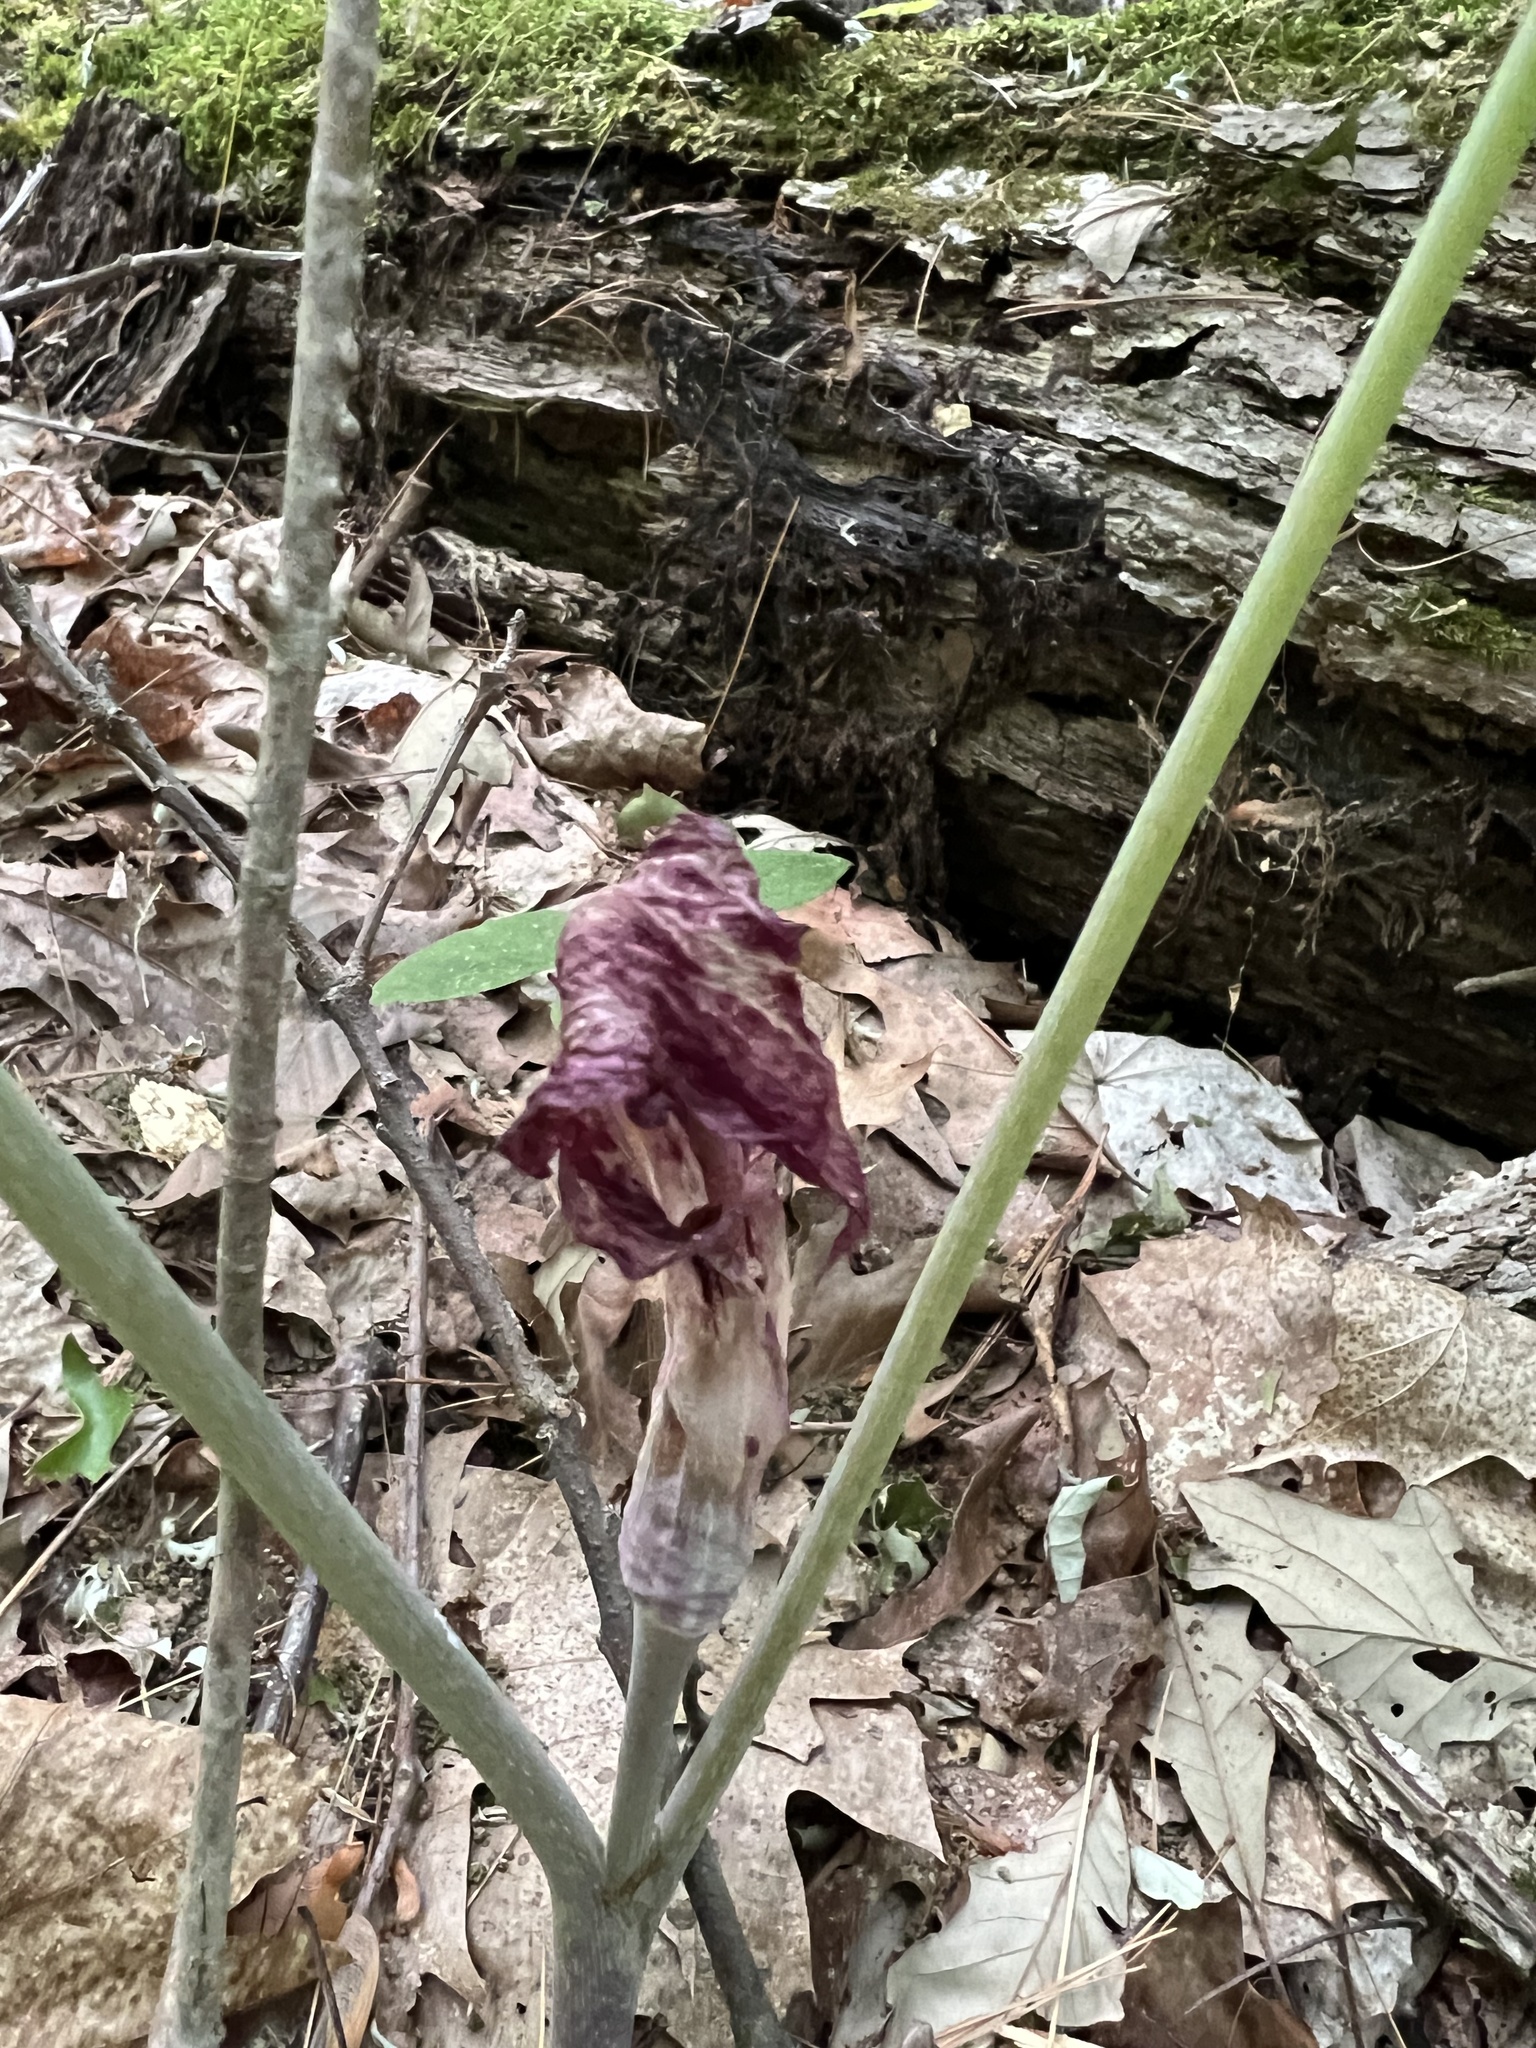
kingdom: Plantae
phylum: Tracheophyta
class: Liliopsida
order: Alismatales
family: Araceae
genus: Arisaema
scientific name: Arisaema triphyllum
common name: Jack-in-the-pulpit
